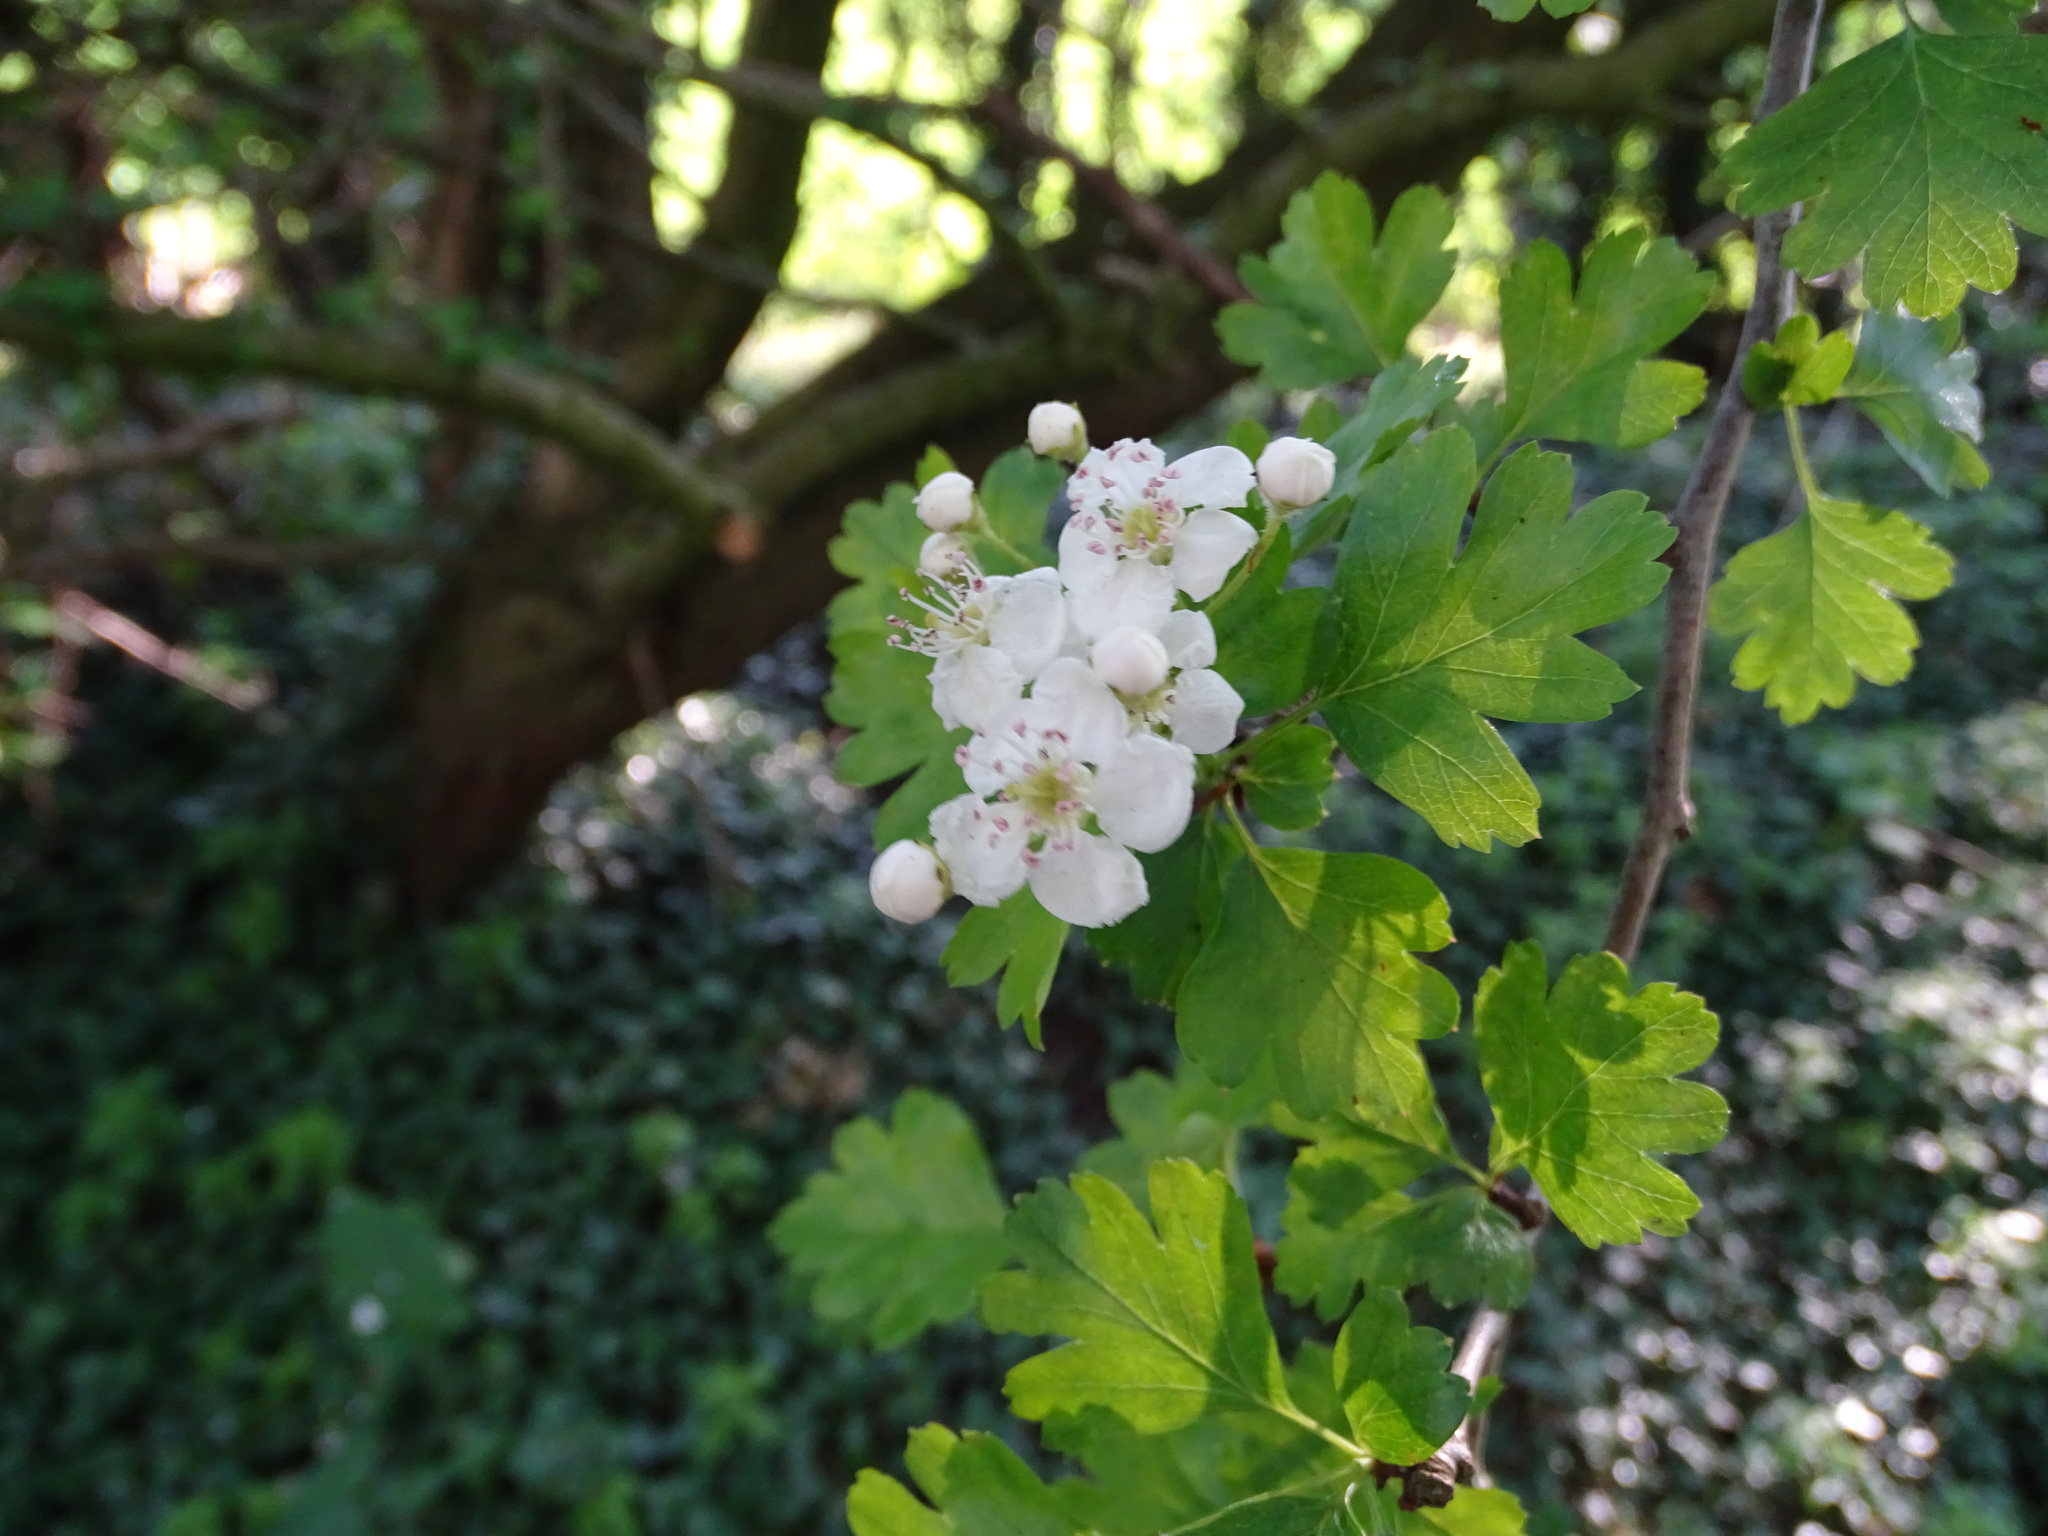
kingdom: Plantae
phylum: Tracheophyta
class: Magnoliopsida
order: Rosales
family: Rosaceae
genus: Crataegus
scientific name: Crataegus monogyna
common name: Hawthorn
